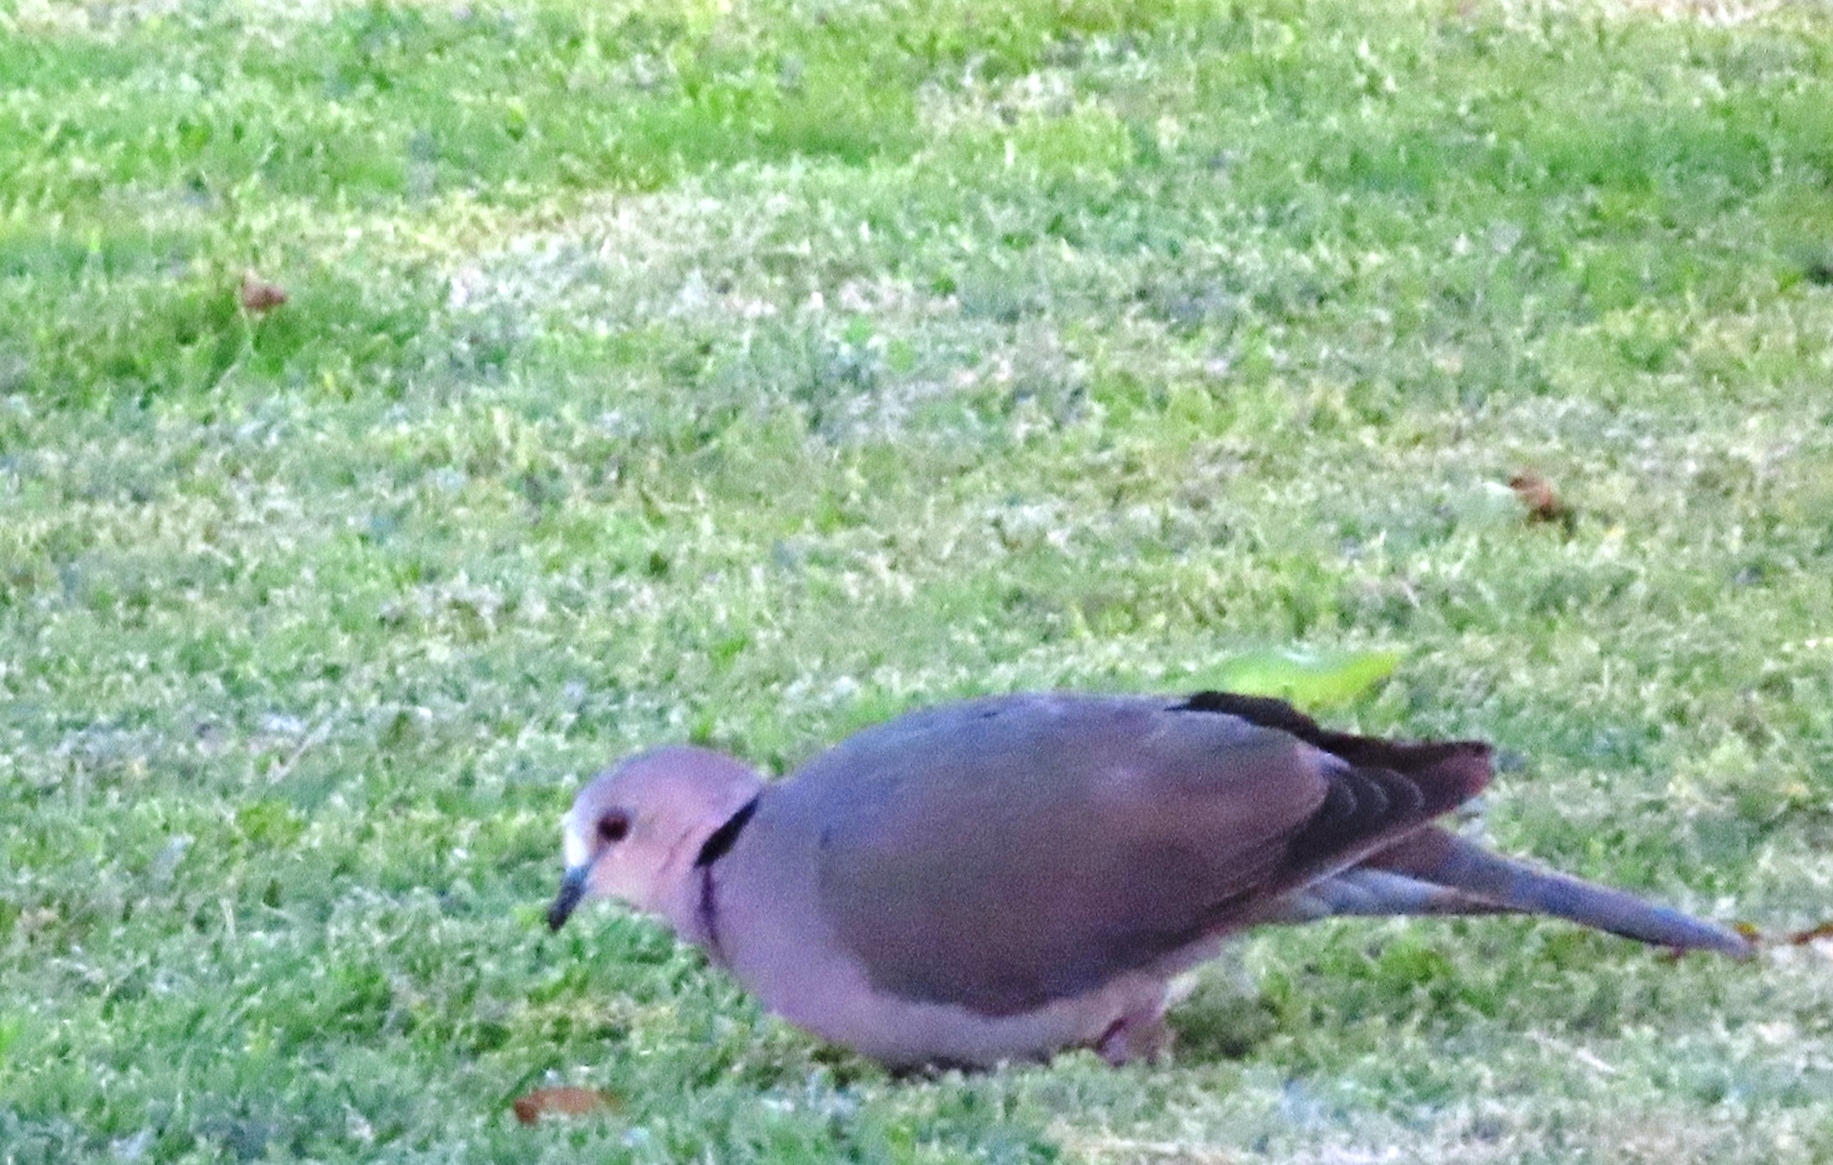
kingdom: Animalia
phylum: Chordata
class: Aves
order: Columbiformes
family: Columbidae
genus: Streptopelia
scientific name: Streptopelia semitorquata
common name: Red-eyed dove
